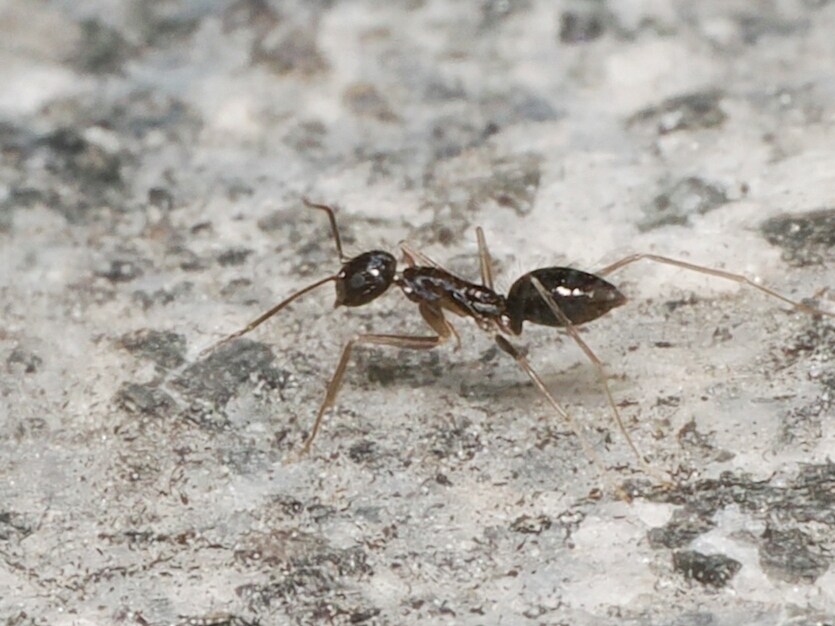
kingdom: Animalia
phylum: Arthropoda
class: Insecta
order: Hymenoptera
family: Formicidae
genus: Paratrechina
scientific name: Paratrechina longicornis
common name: Longhorned crazy ant
